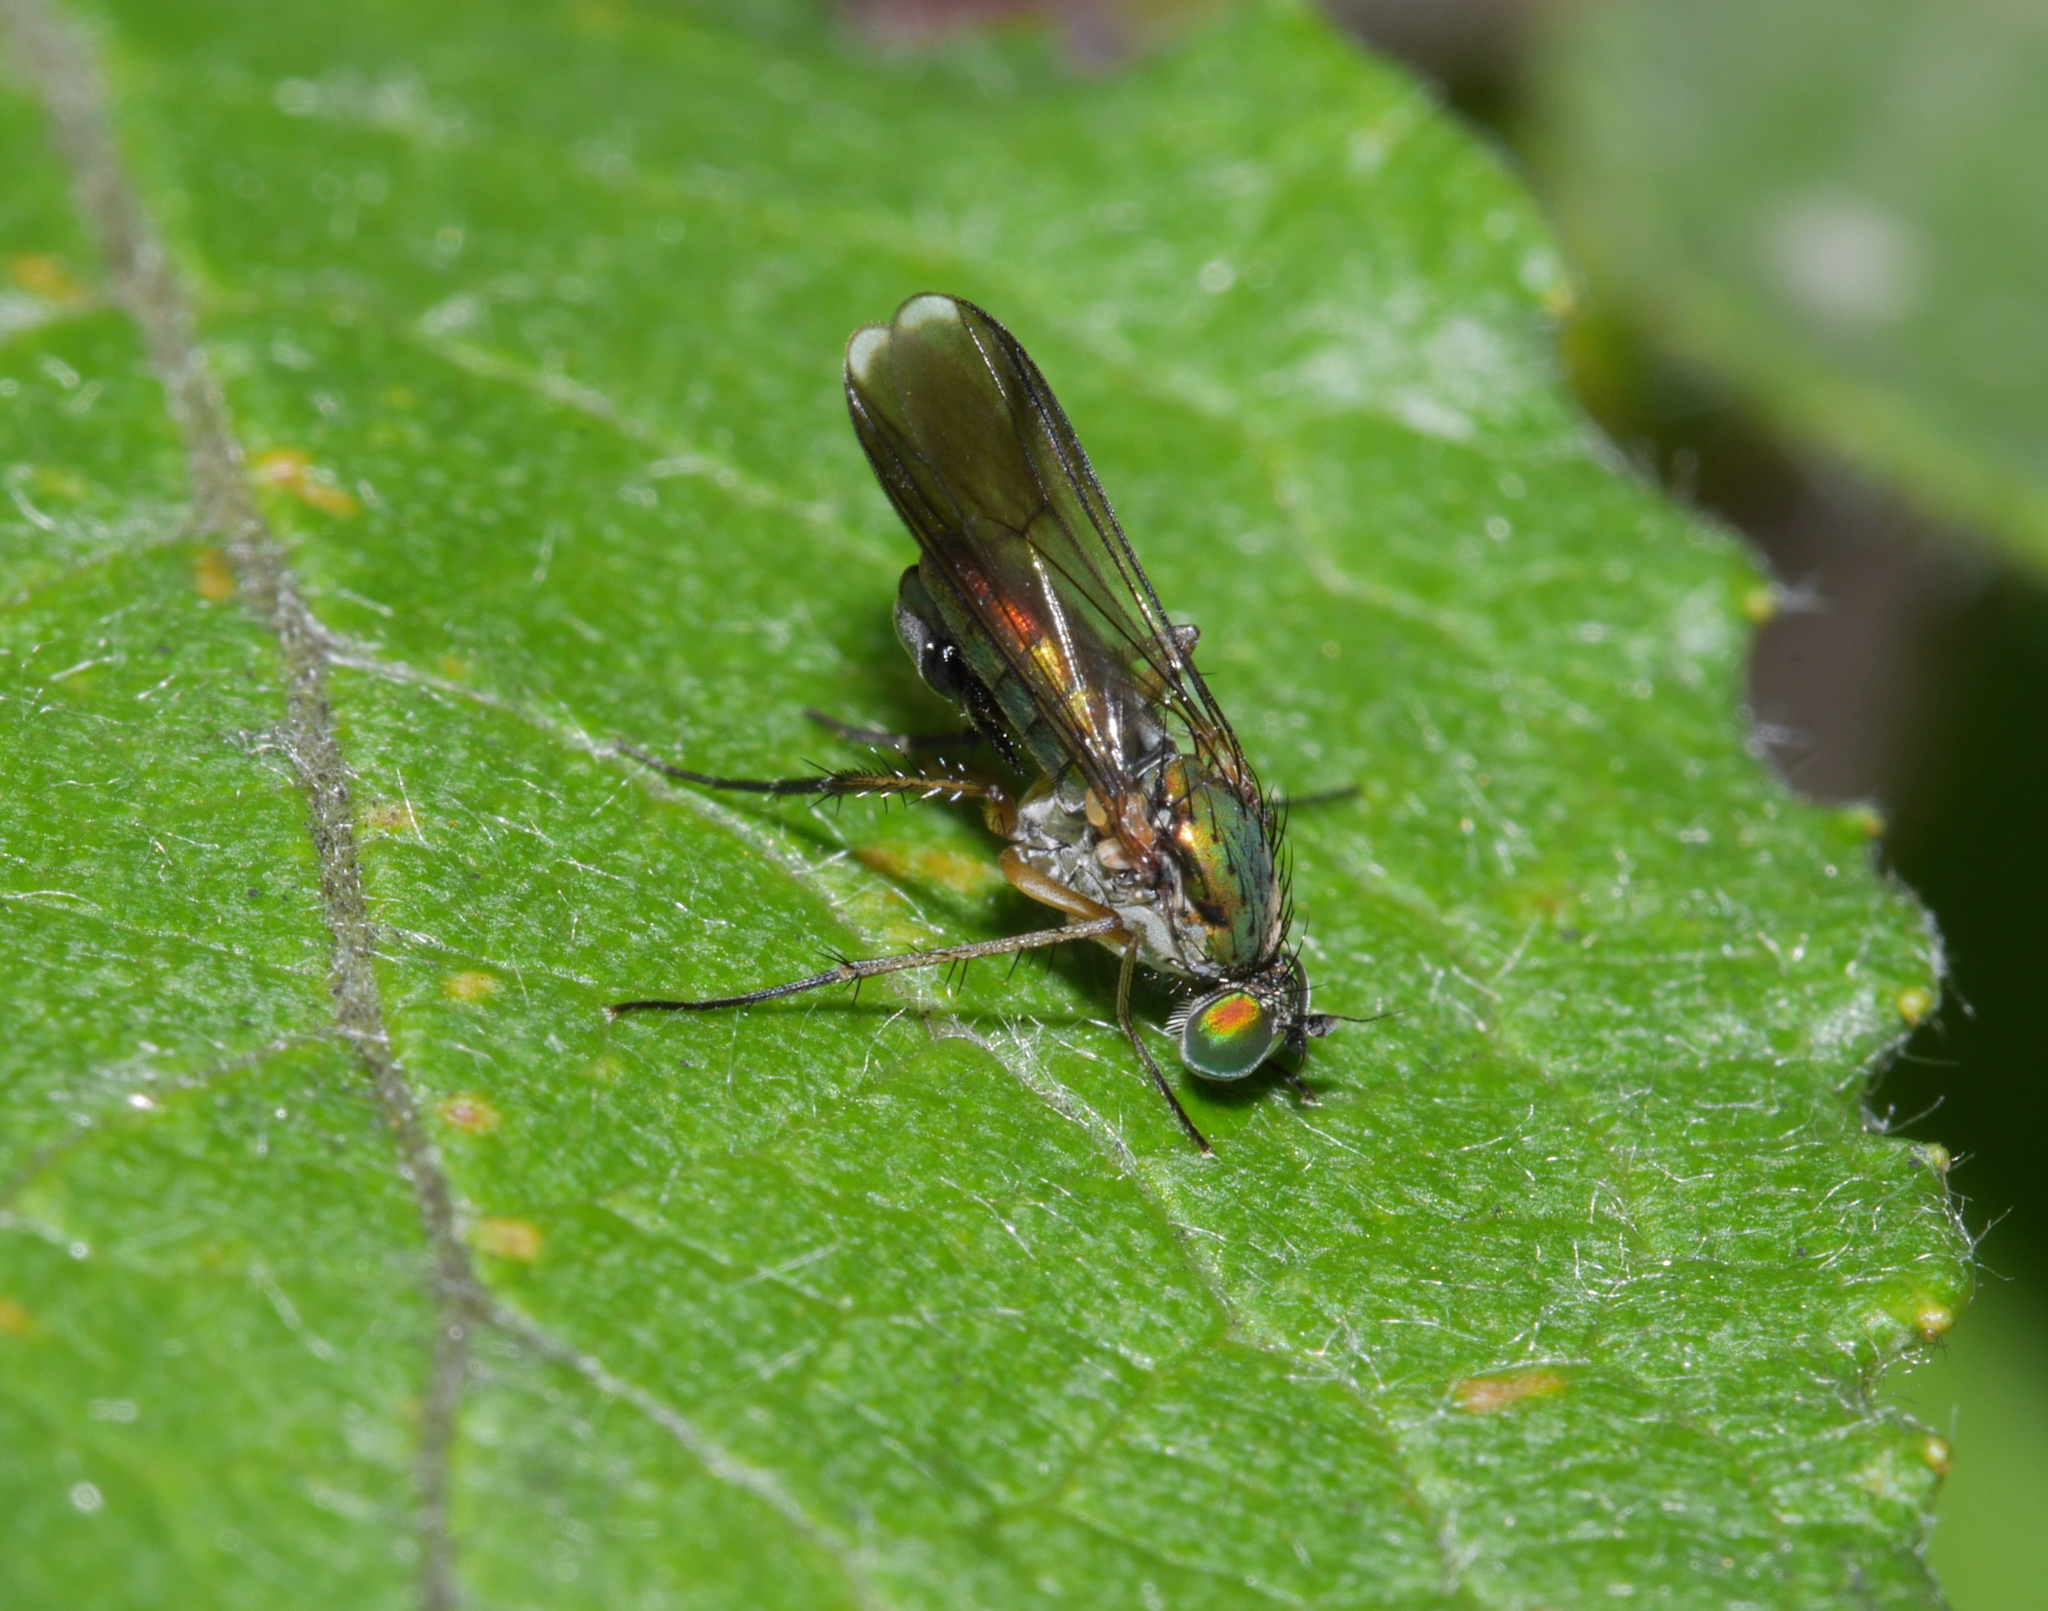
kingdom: Animalia
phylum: Arthropoda
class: Insecta
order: Diptera
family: Dolichopodidae
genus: Poecilobothrus
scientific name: Poecilobothrus nobilitatus
